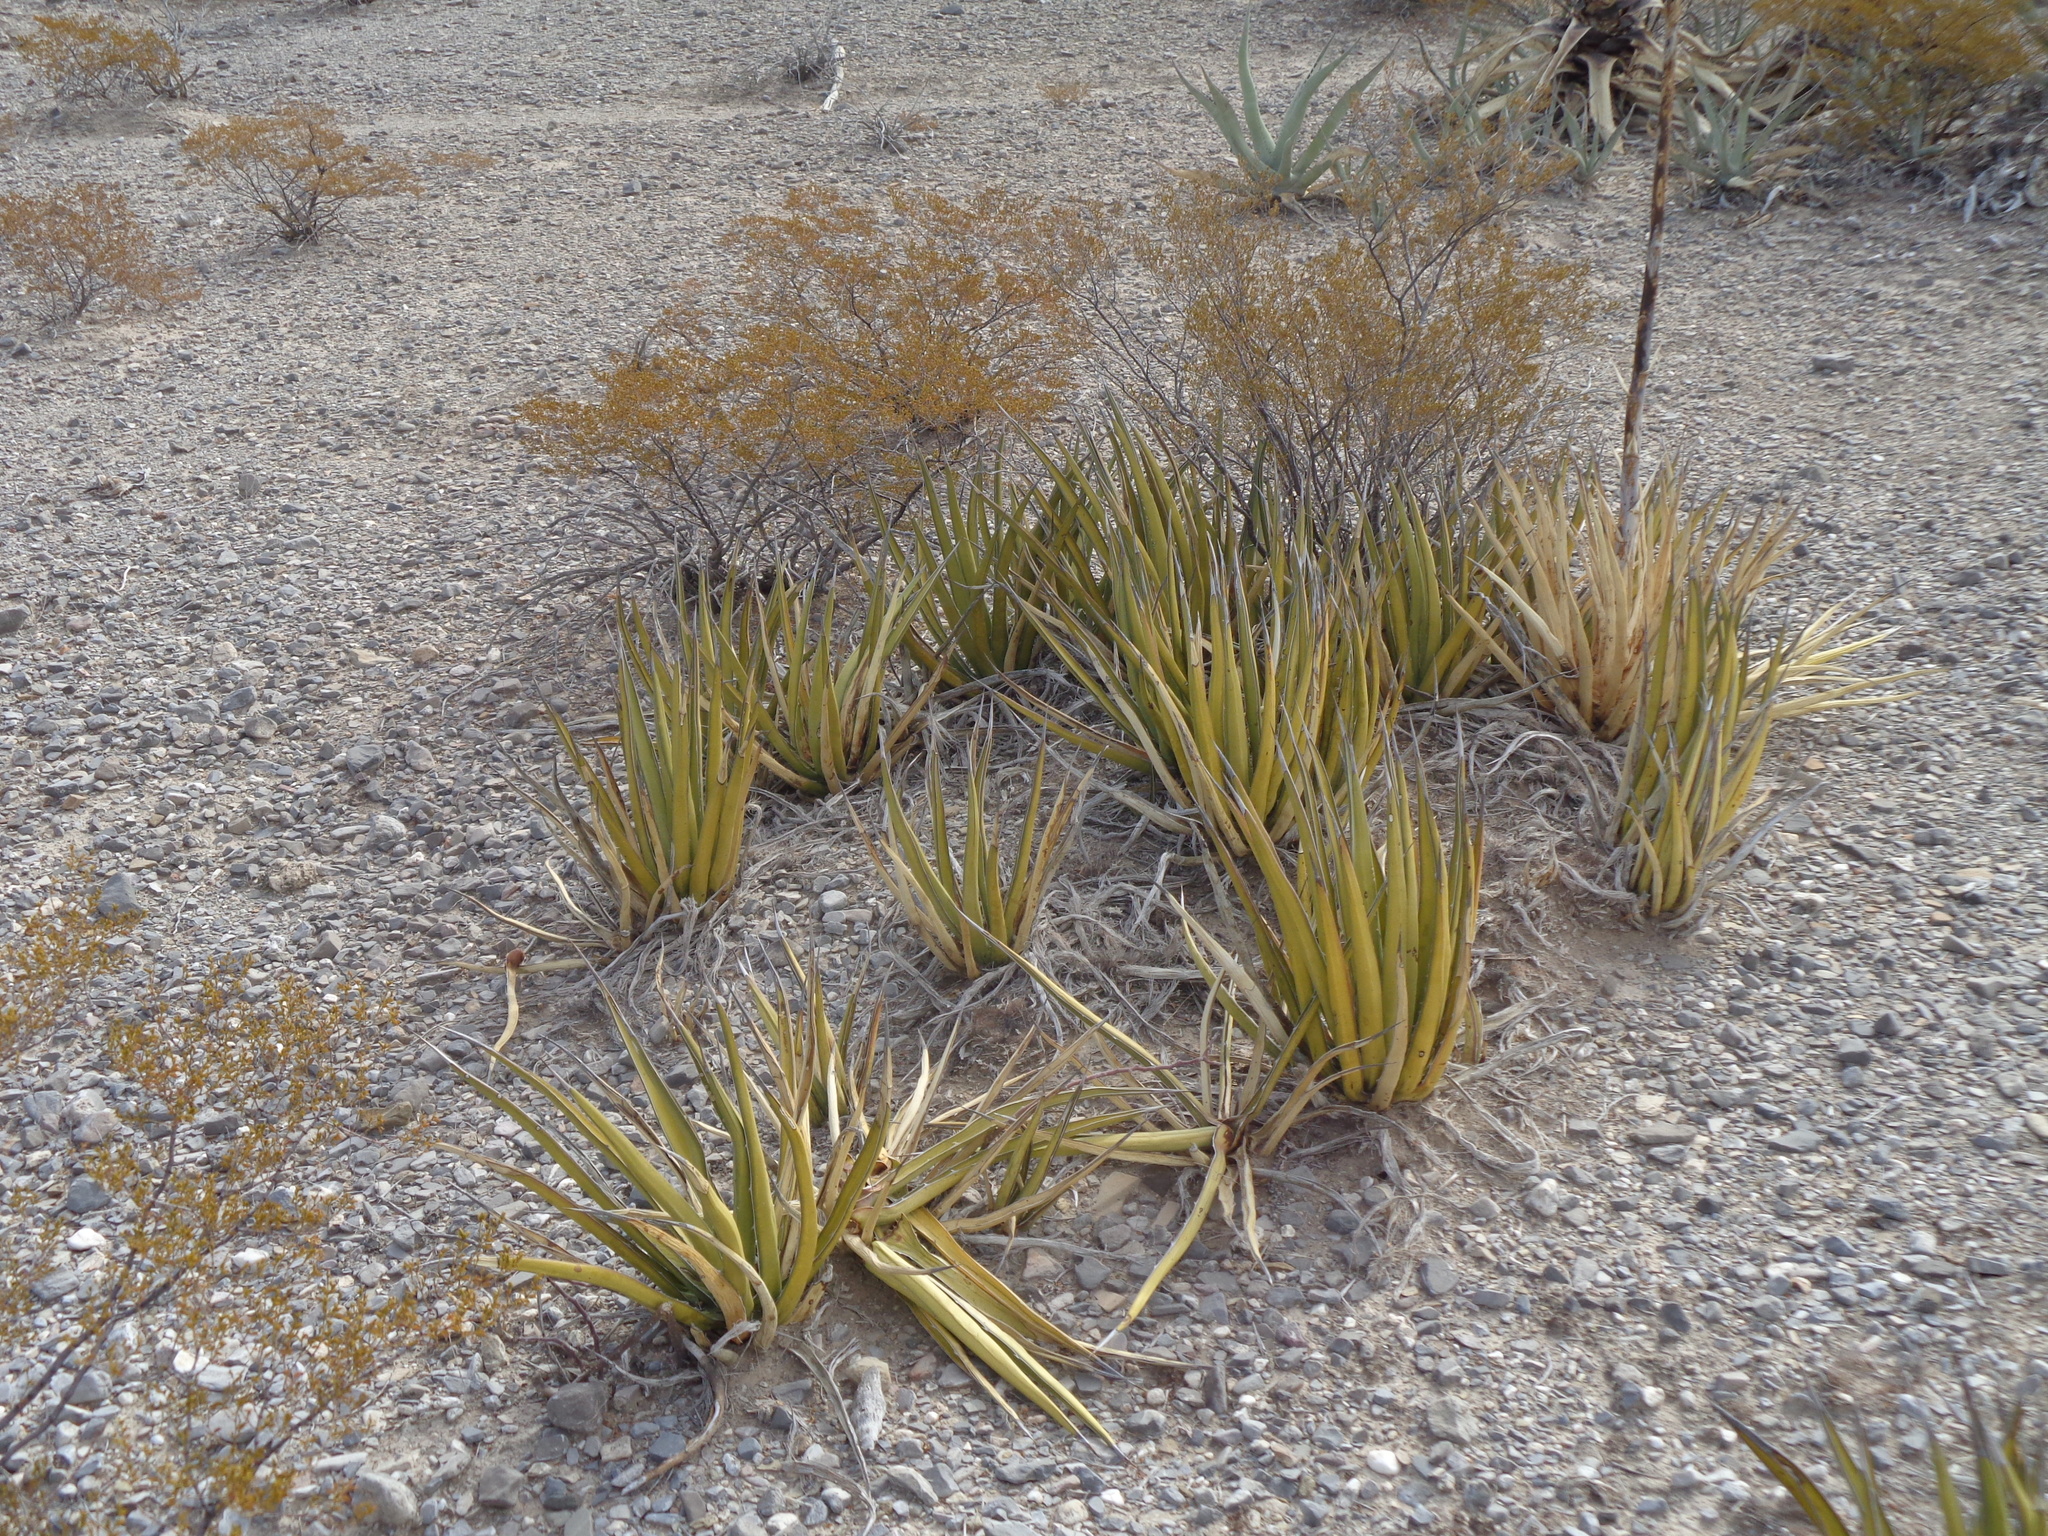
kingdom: Plantae
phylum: Tracheophyta
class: Liliopsida
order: Asparagales
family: Asparagaceae
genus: Agave
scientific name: Agave lechuguilla
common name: Lecheguilla agave
